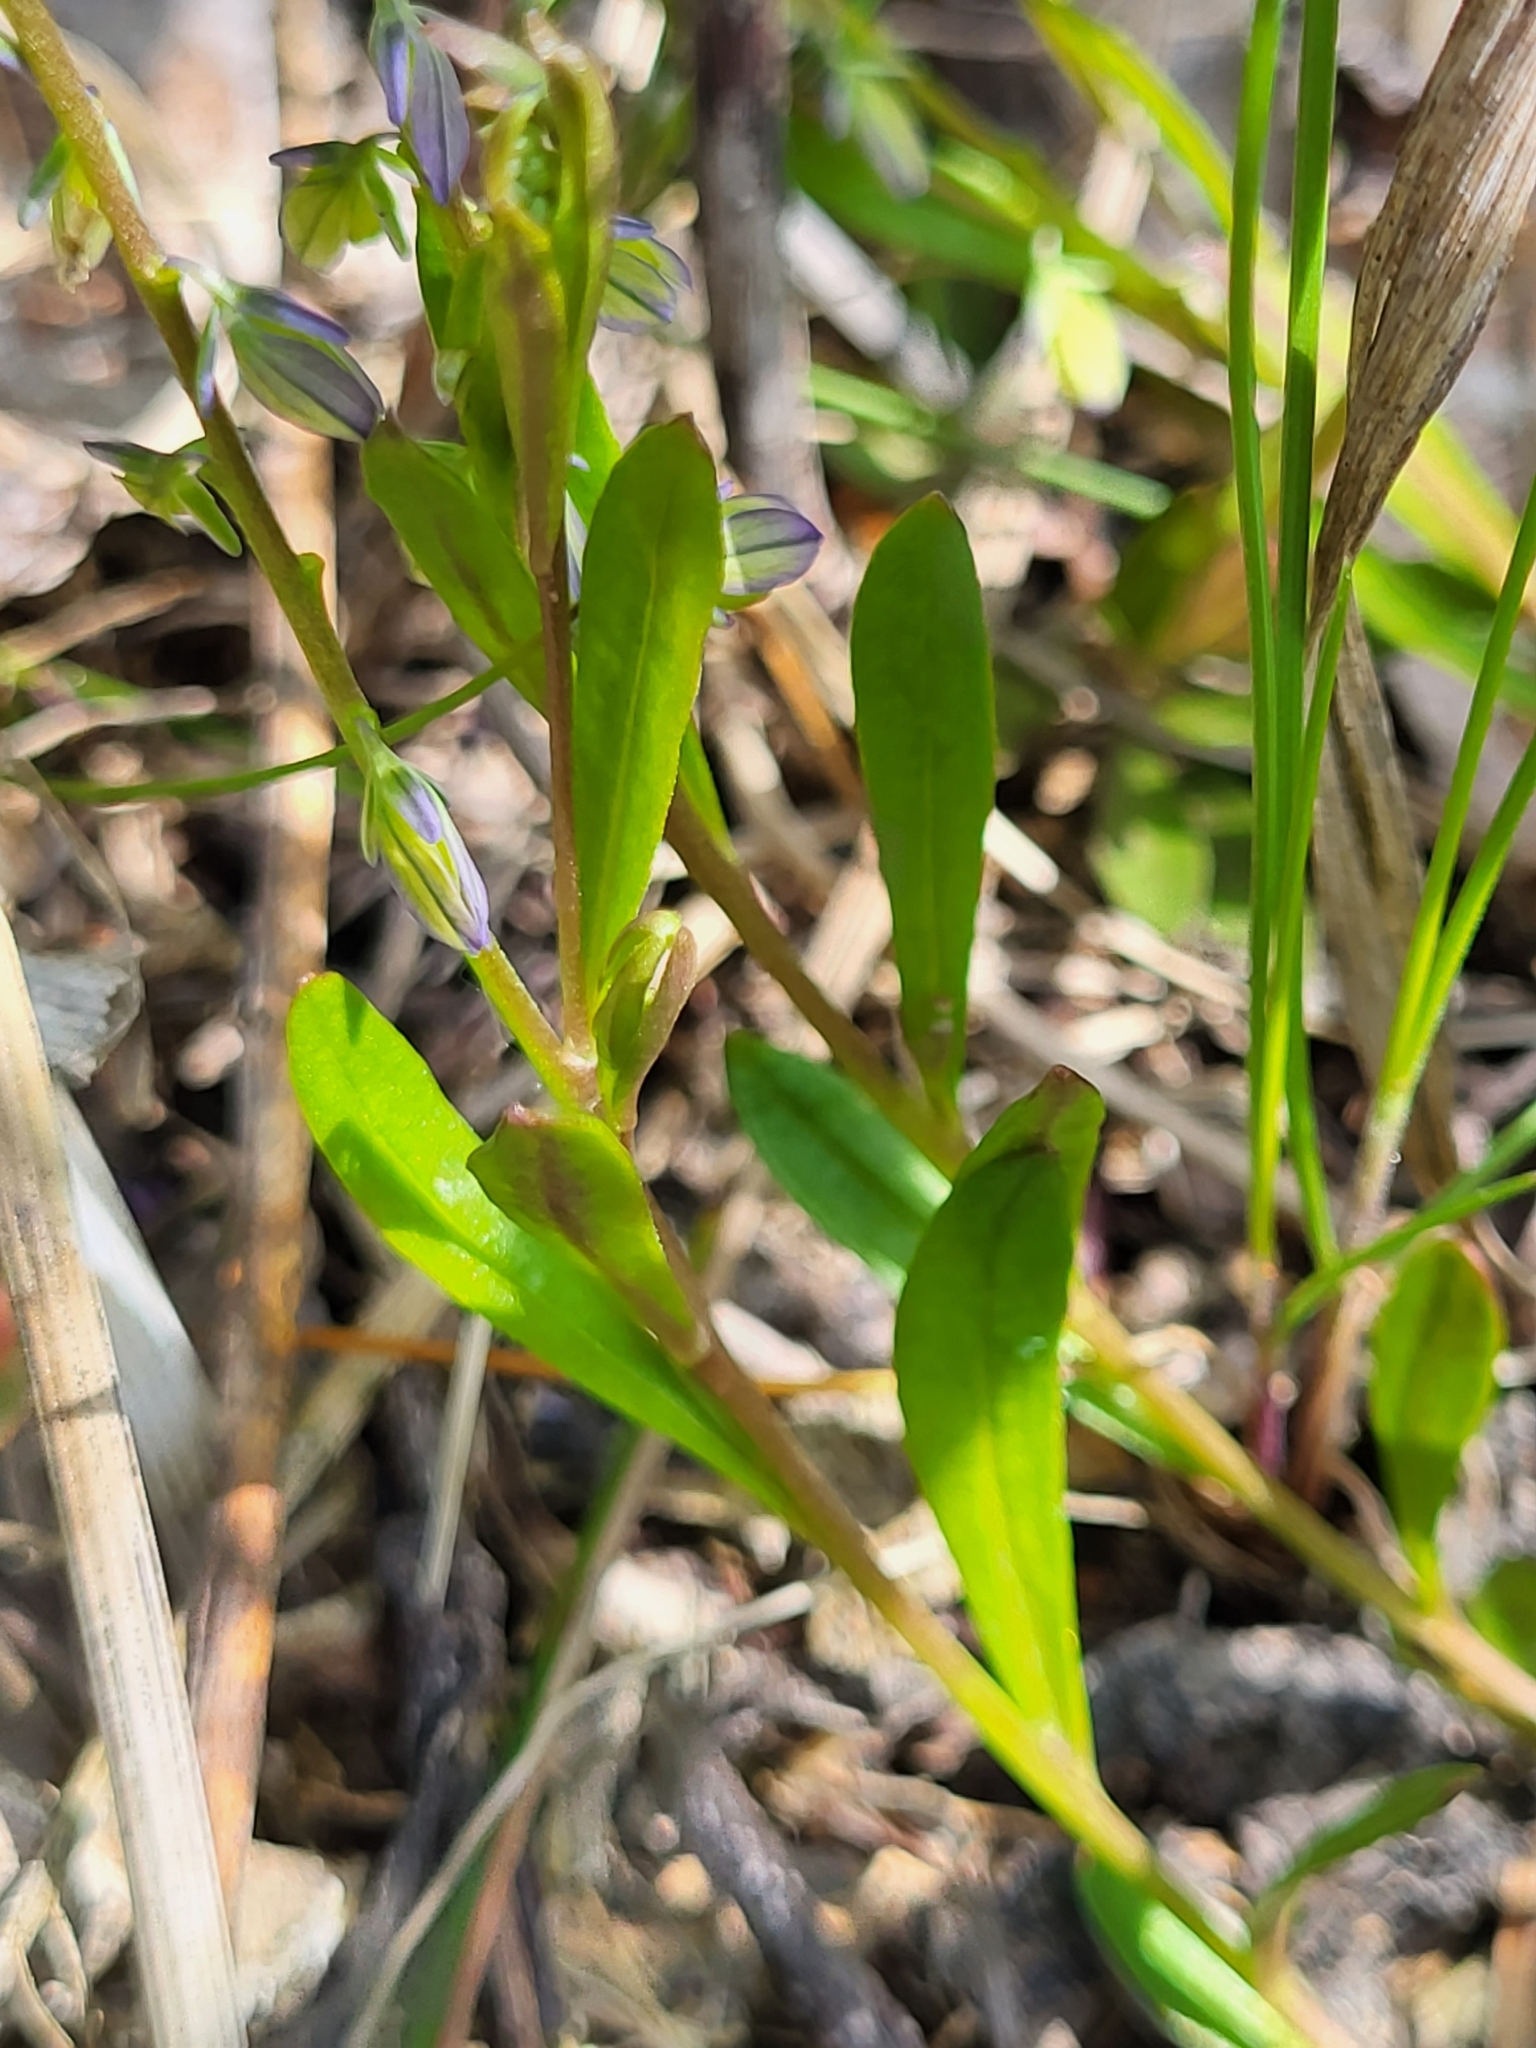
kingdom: Plantae
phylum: Tracheophyta
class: Magnoliopsida
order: Fabales
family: Polygalaceae
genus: Polygala
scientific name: Polygala amarella
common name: Dwarf milkwort
